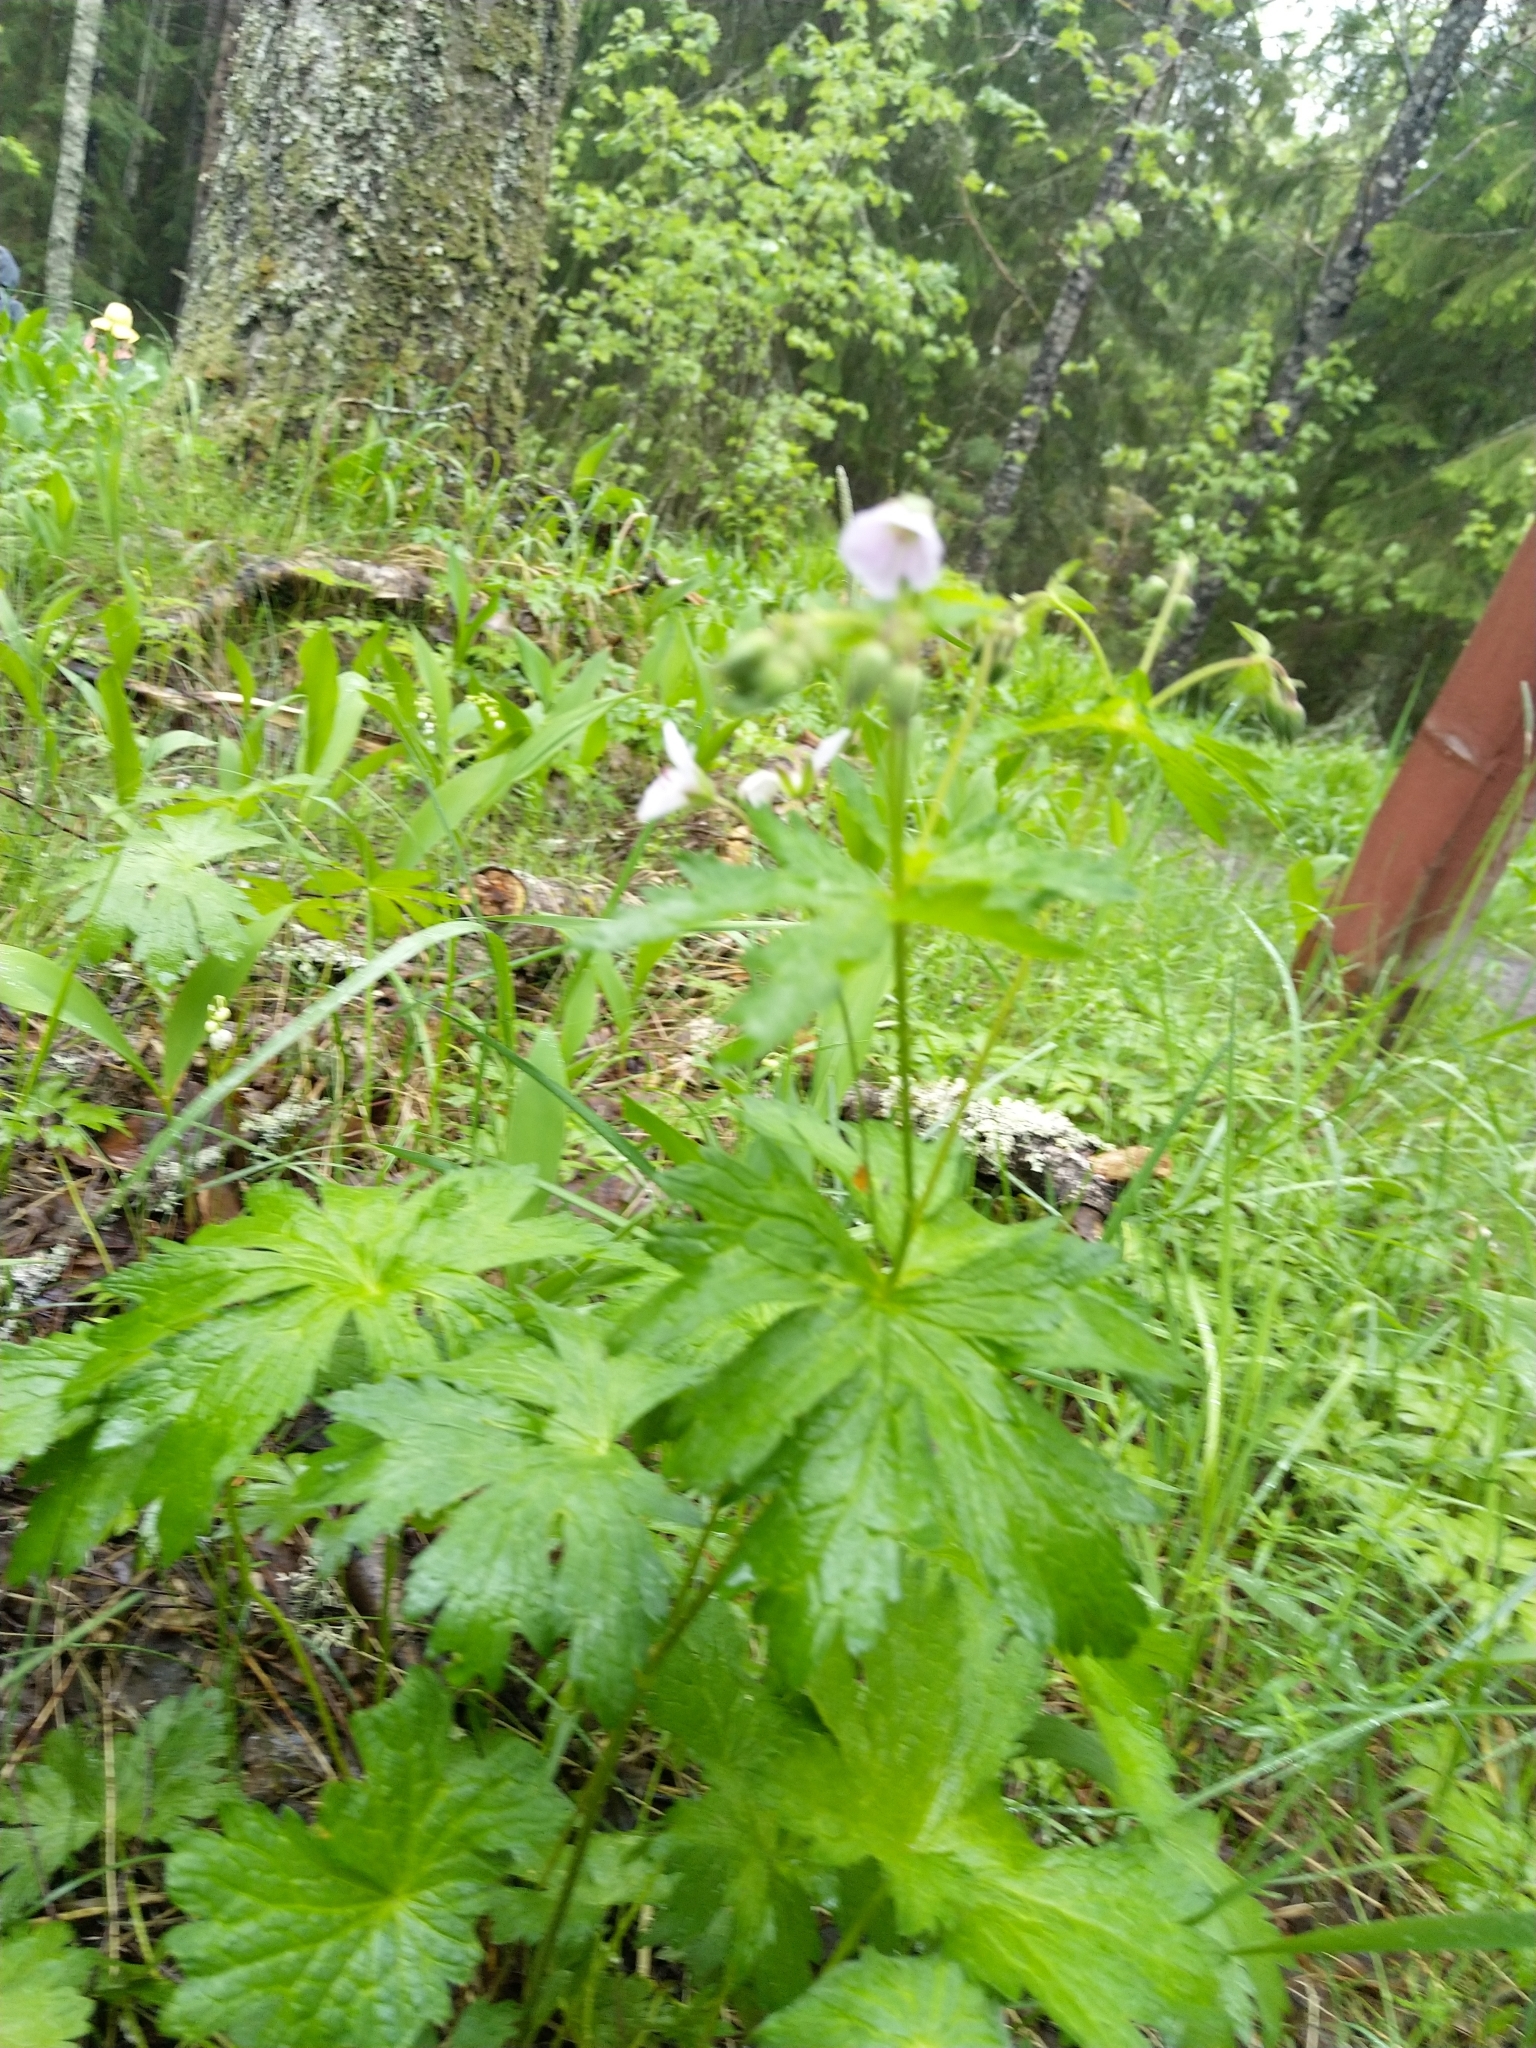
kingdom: Plantae
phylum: Tracheophyta
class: Magnoliopsida
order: Geraniales
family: Geraniaceae
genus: Geranium
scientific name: Geranium sylvaticum
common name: Wood crane's-bill
